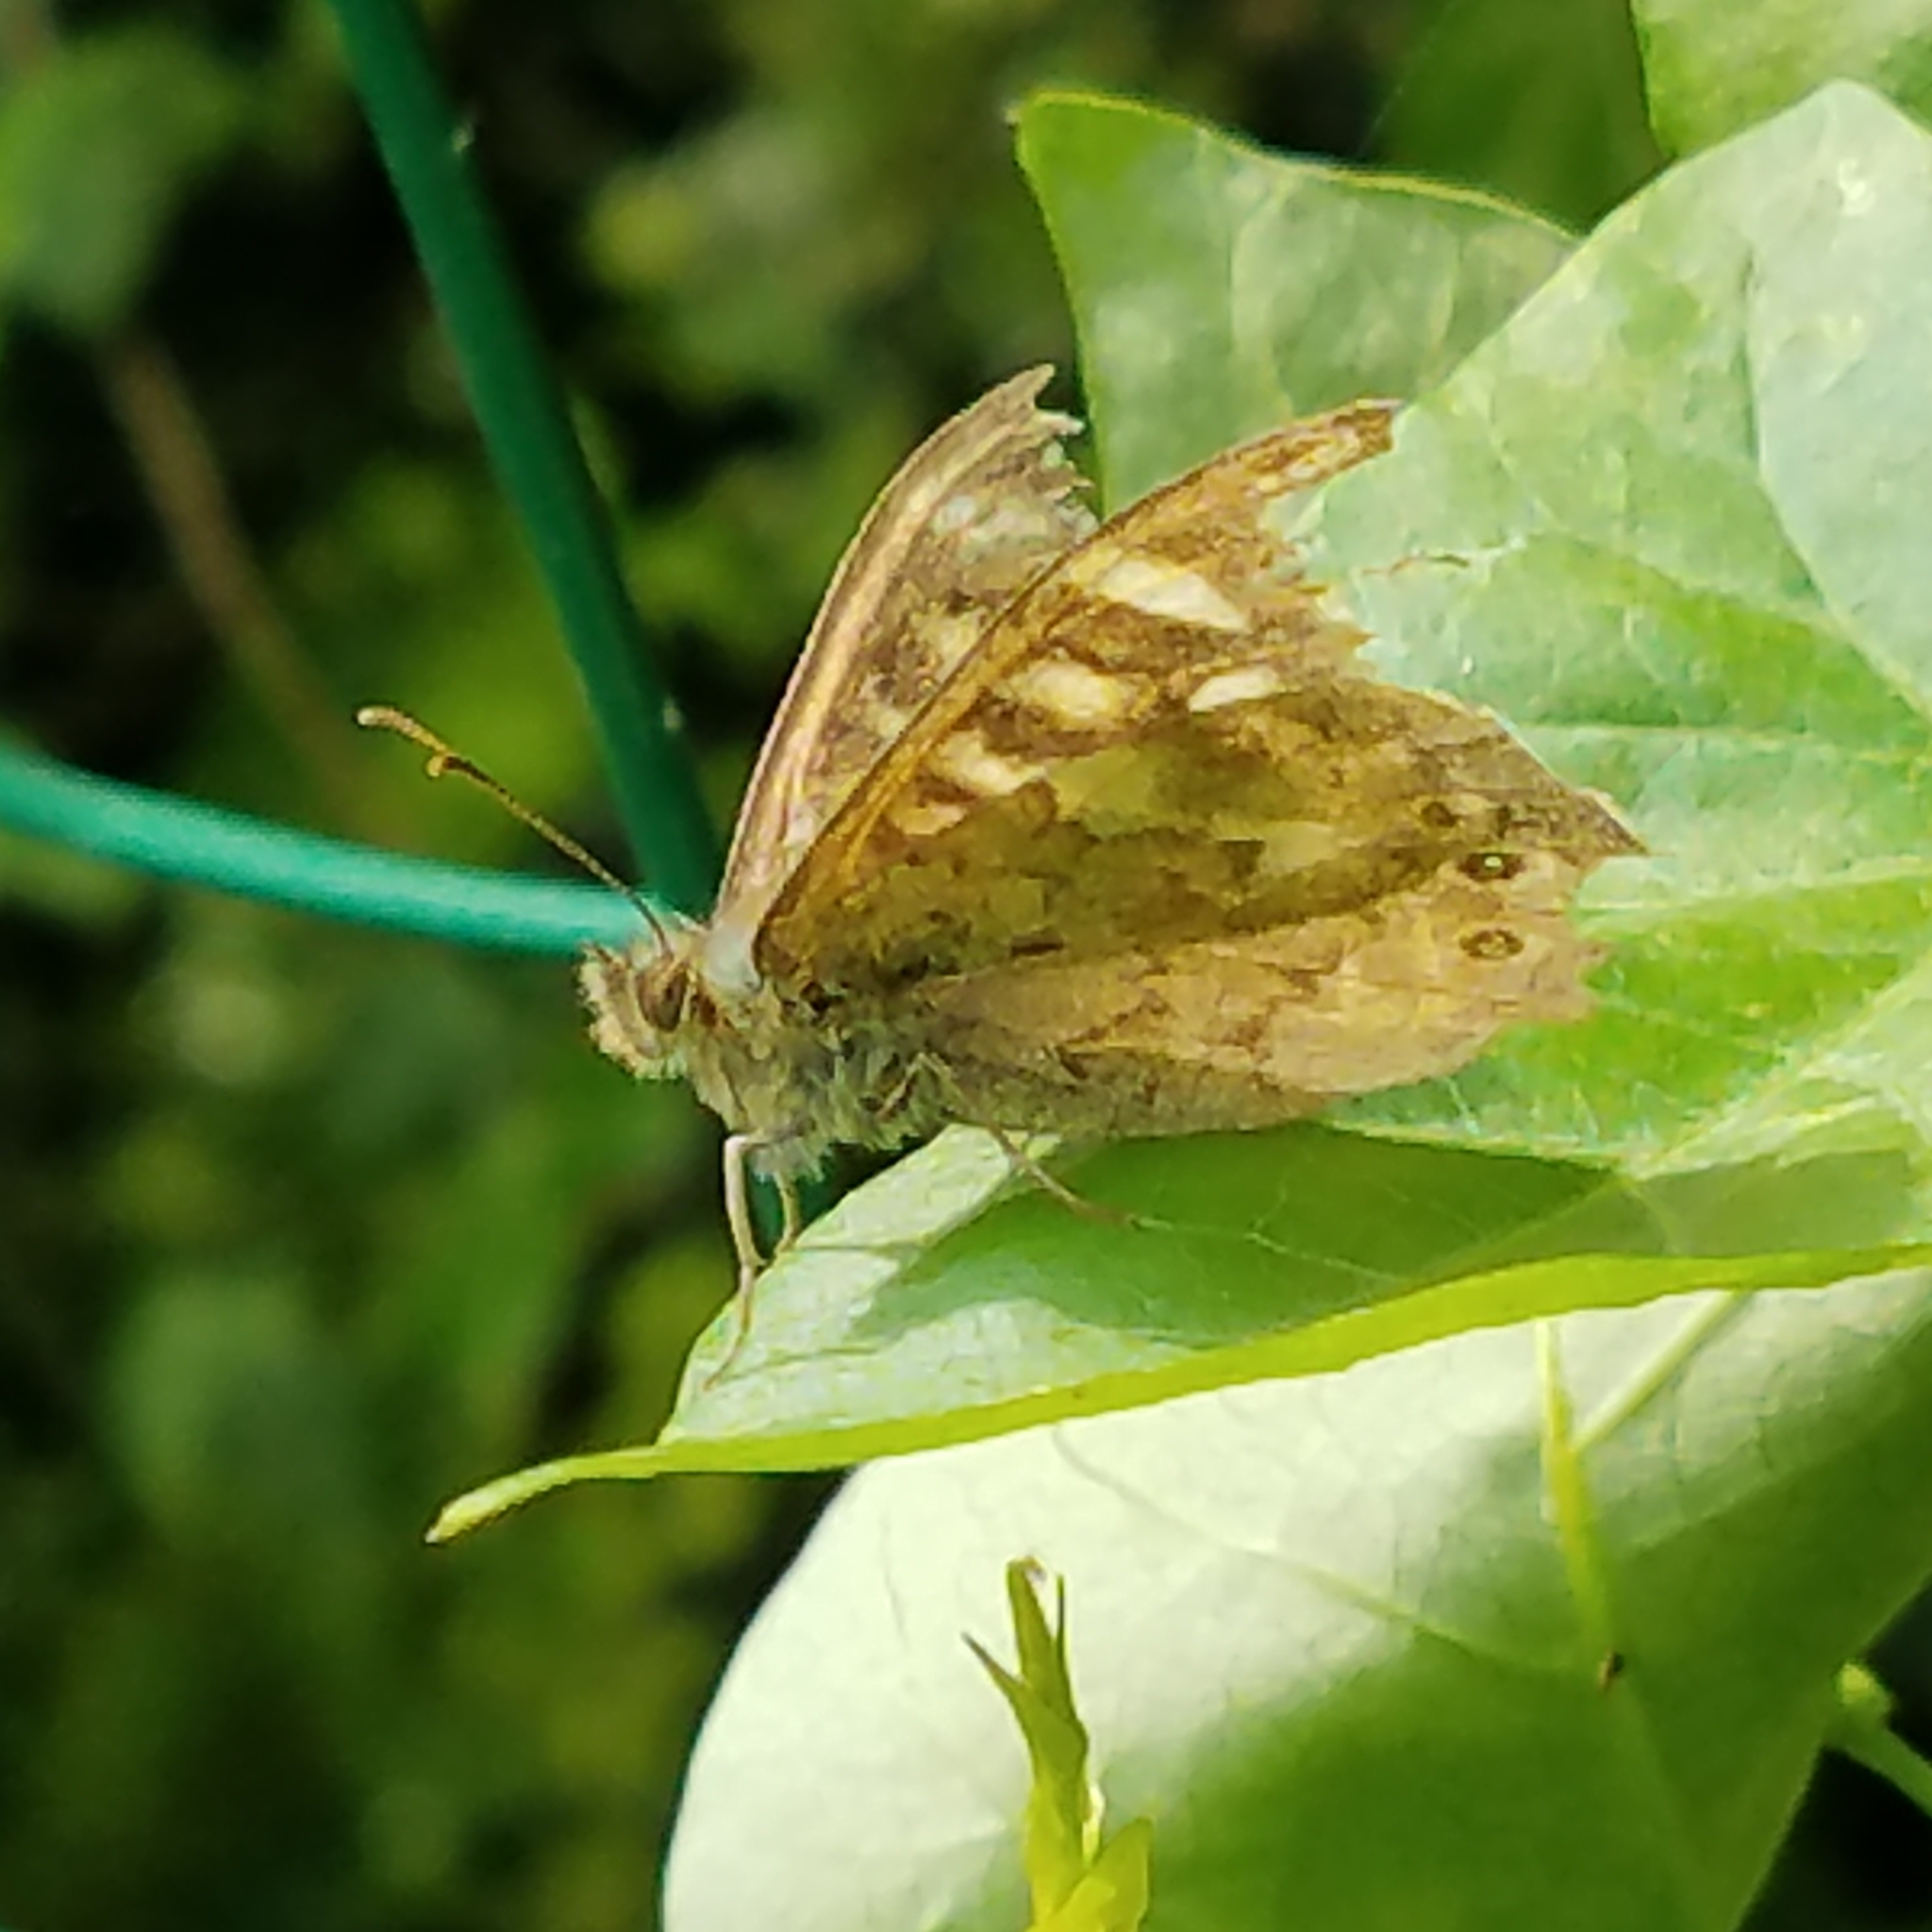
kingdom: Animalia
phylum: Arthropoda
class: Insecta
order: Lepidoptera
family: Nymphalidae
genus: Pararge
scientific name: Pararge aegeria
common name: Speckled wood
